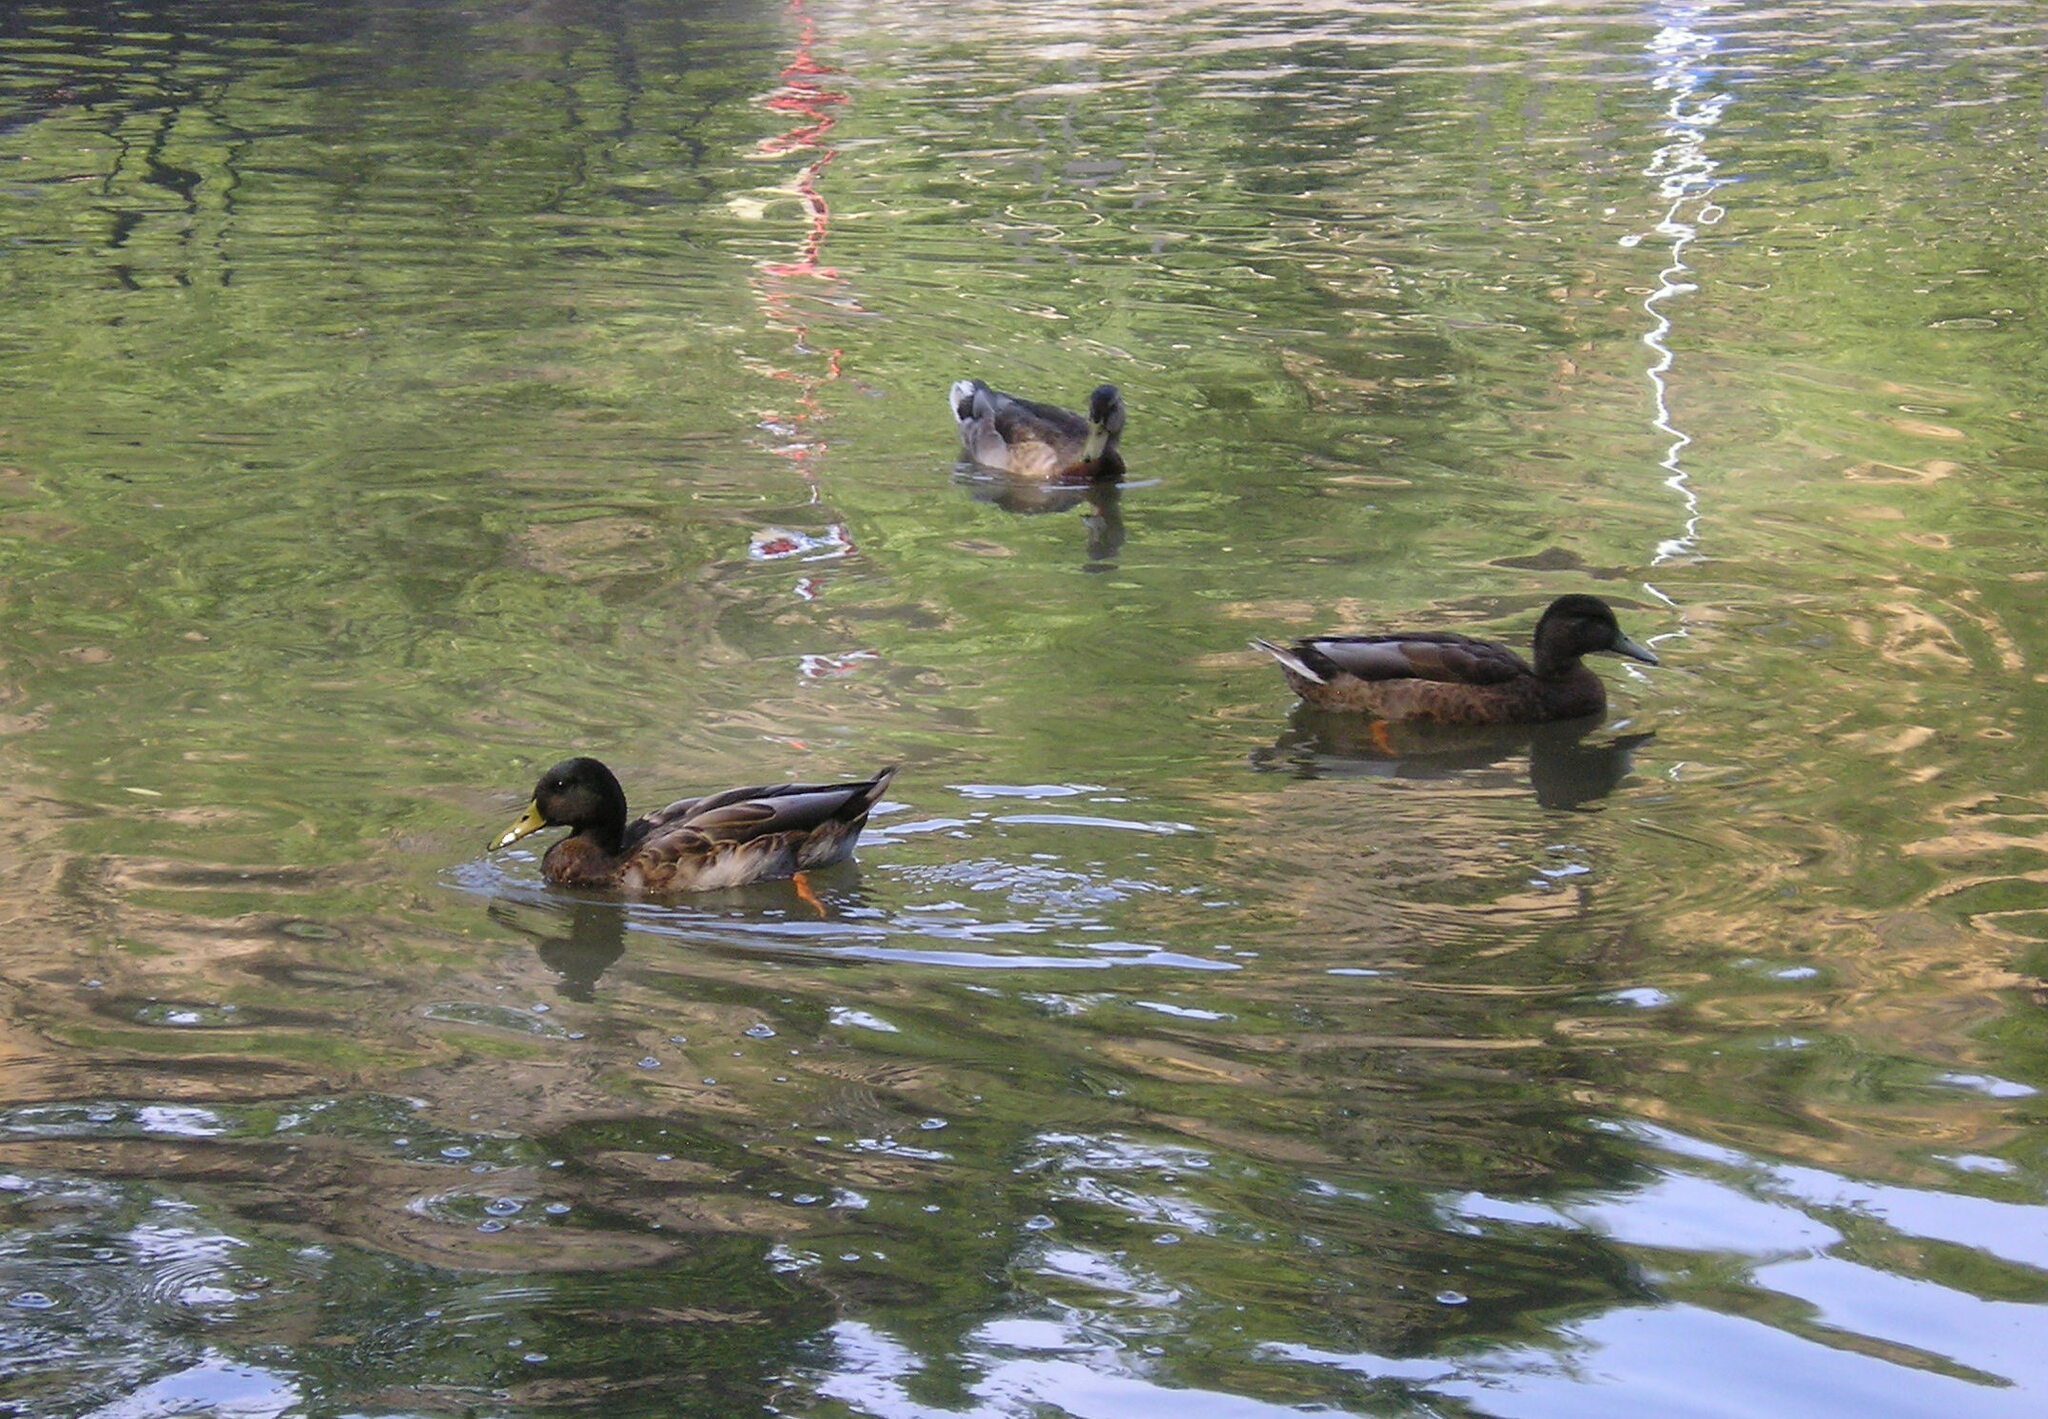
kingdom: Animalia
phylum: Chordata
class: Aves
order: Anseriformes
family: Anatidae
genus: Anas
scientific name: Anas platyrhynchos
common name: Mallard
